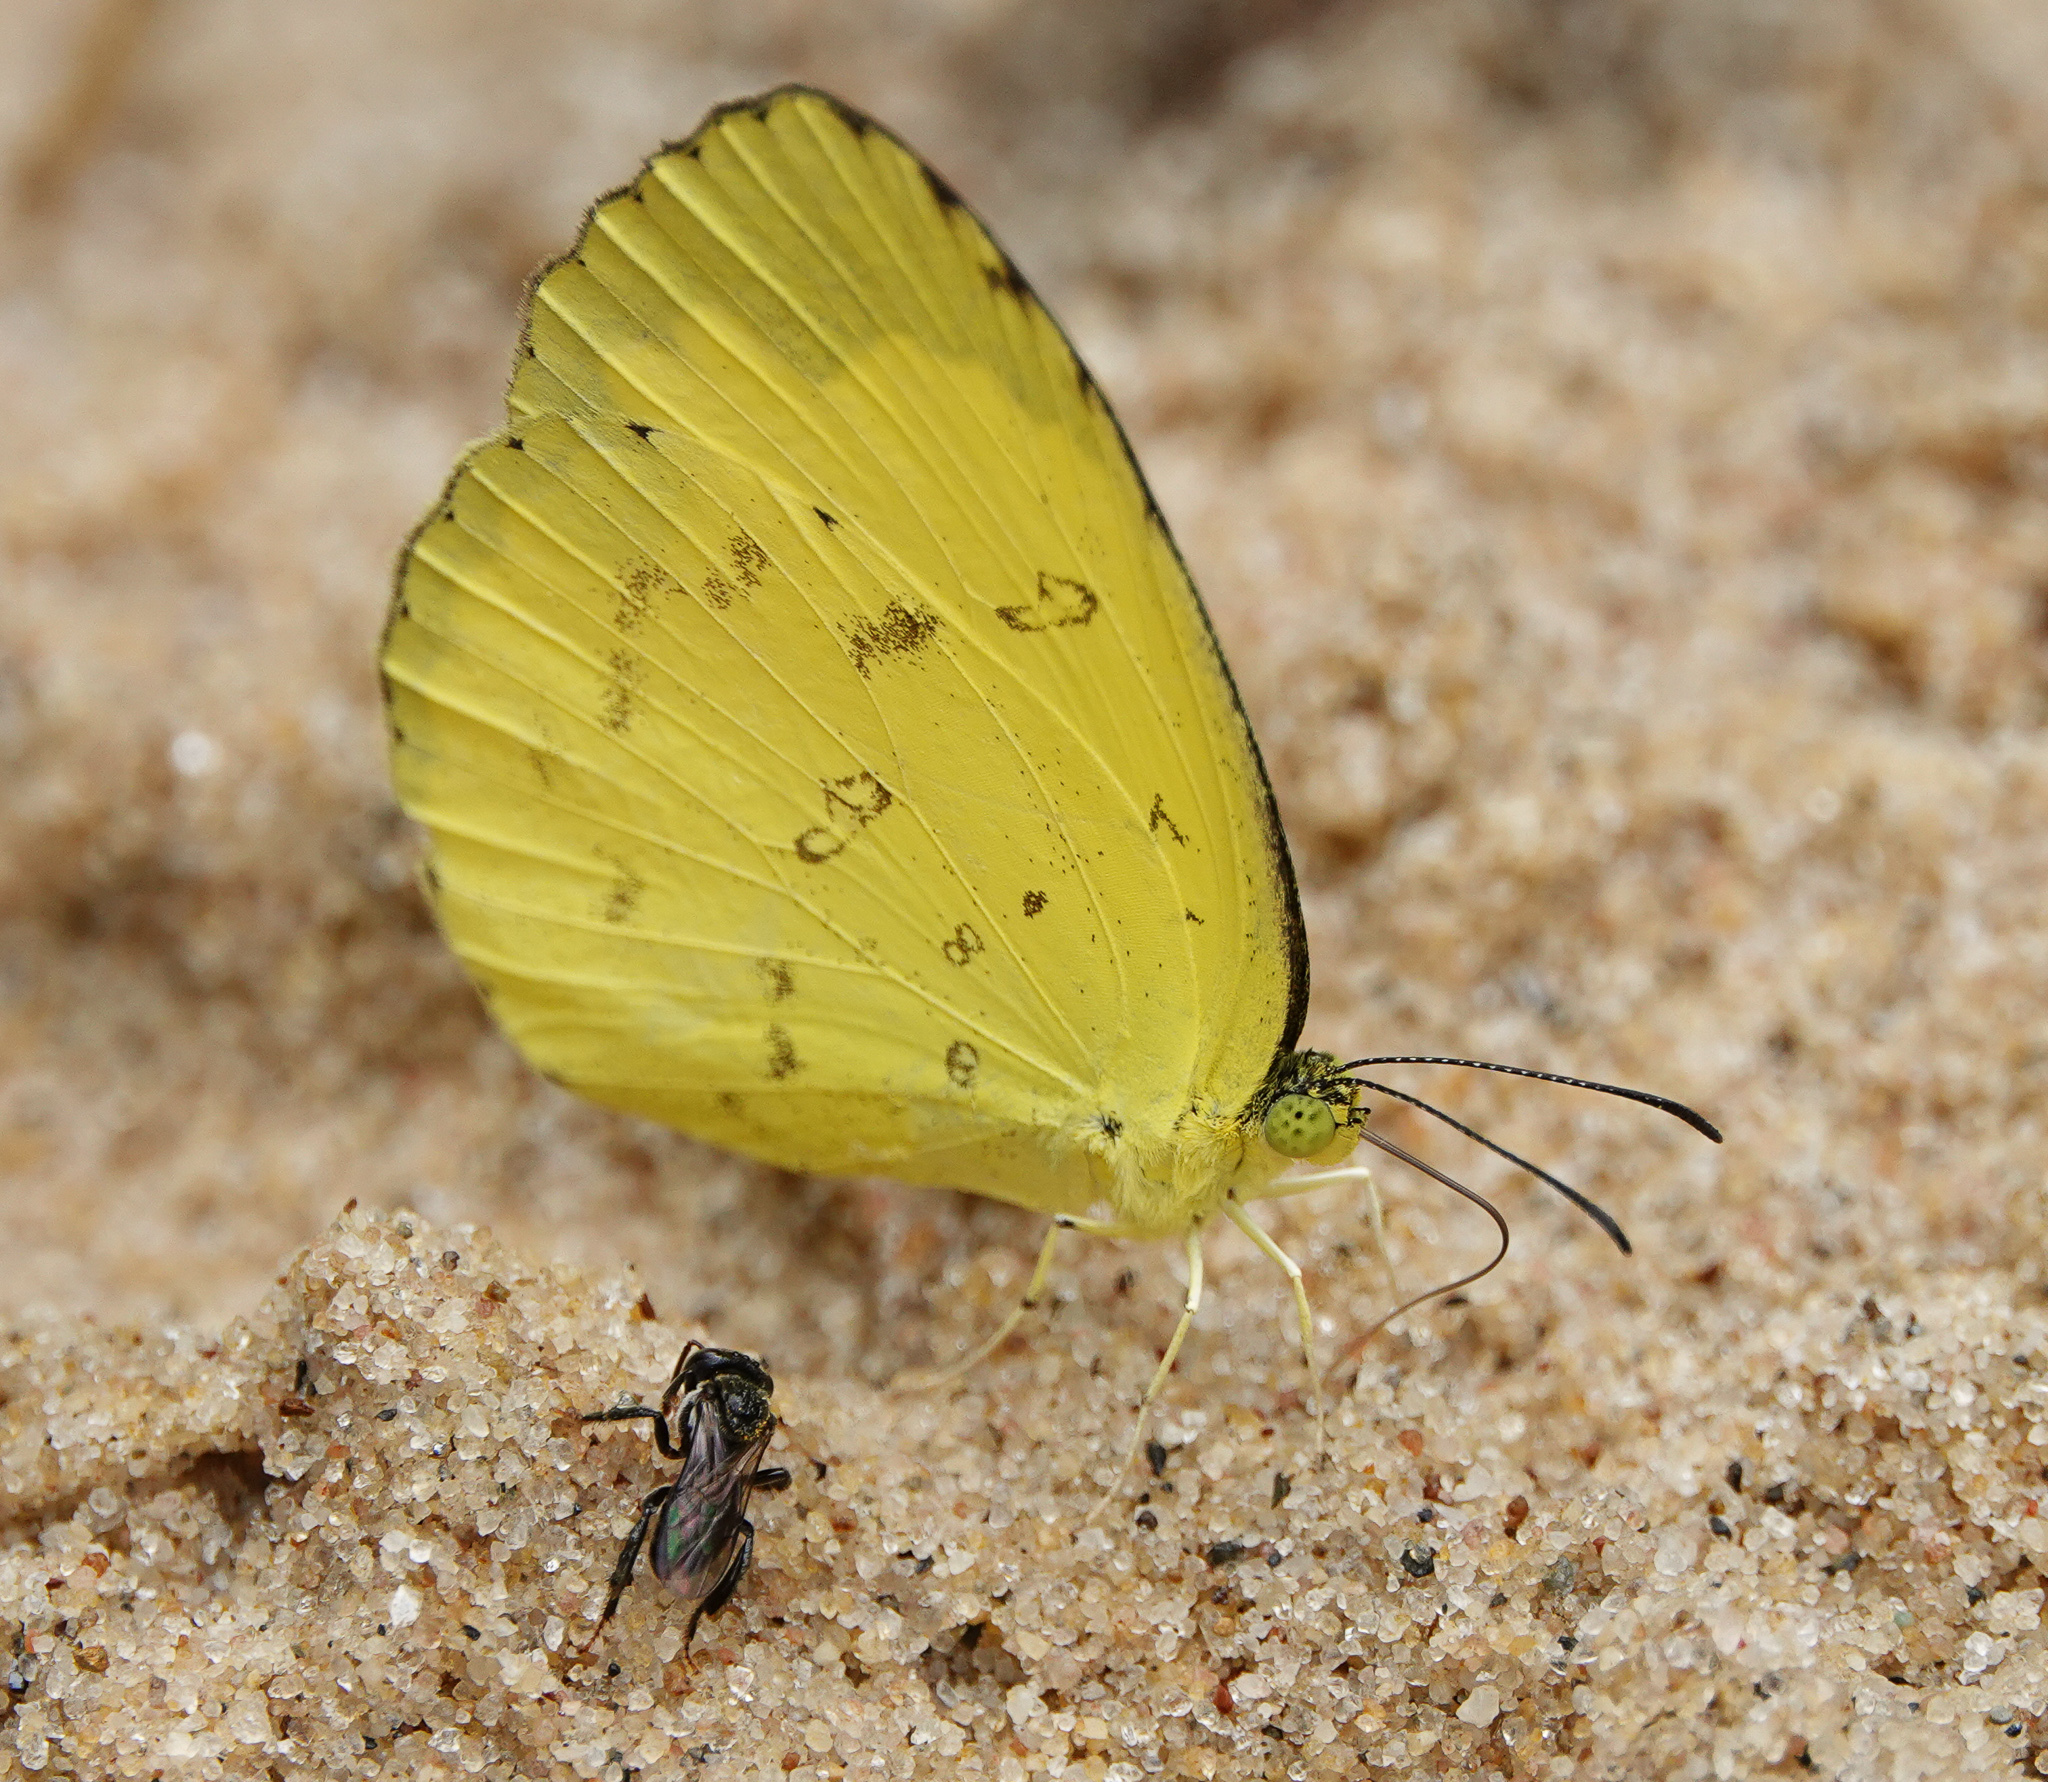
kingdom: Animalia
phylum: Arthropoda
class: Insecta
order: Lepidoptera
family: Pieridae
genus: Eurema
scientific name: Eurema blanda
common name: Three-spot grass yellow
